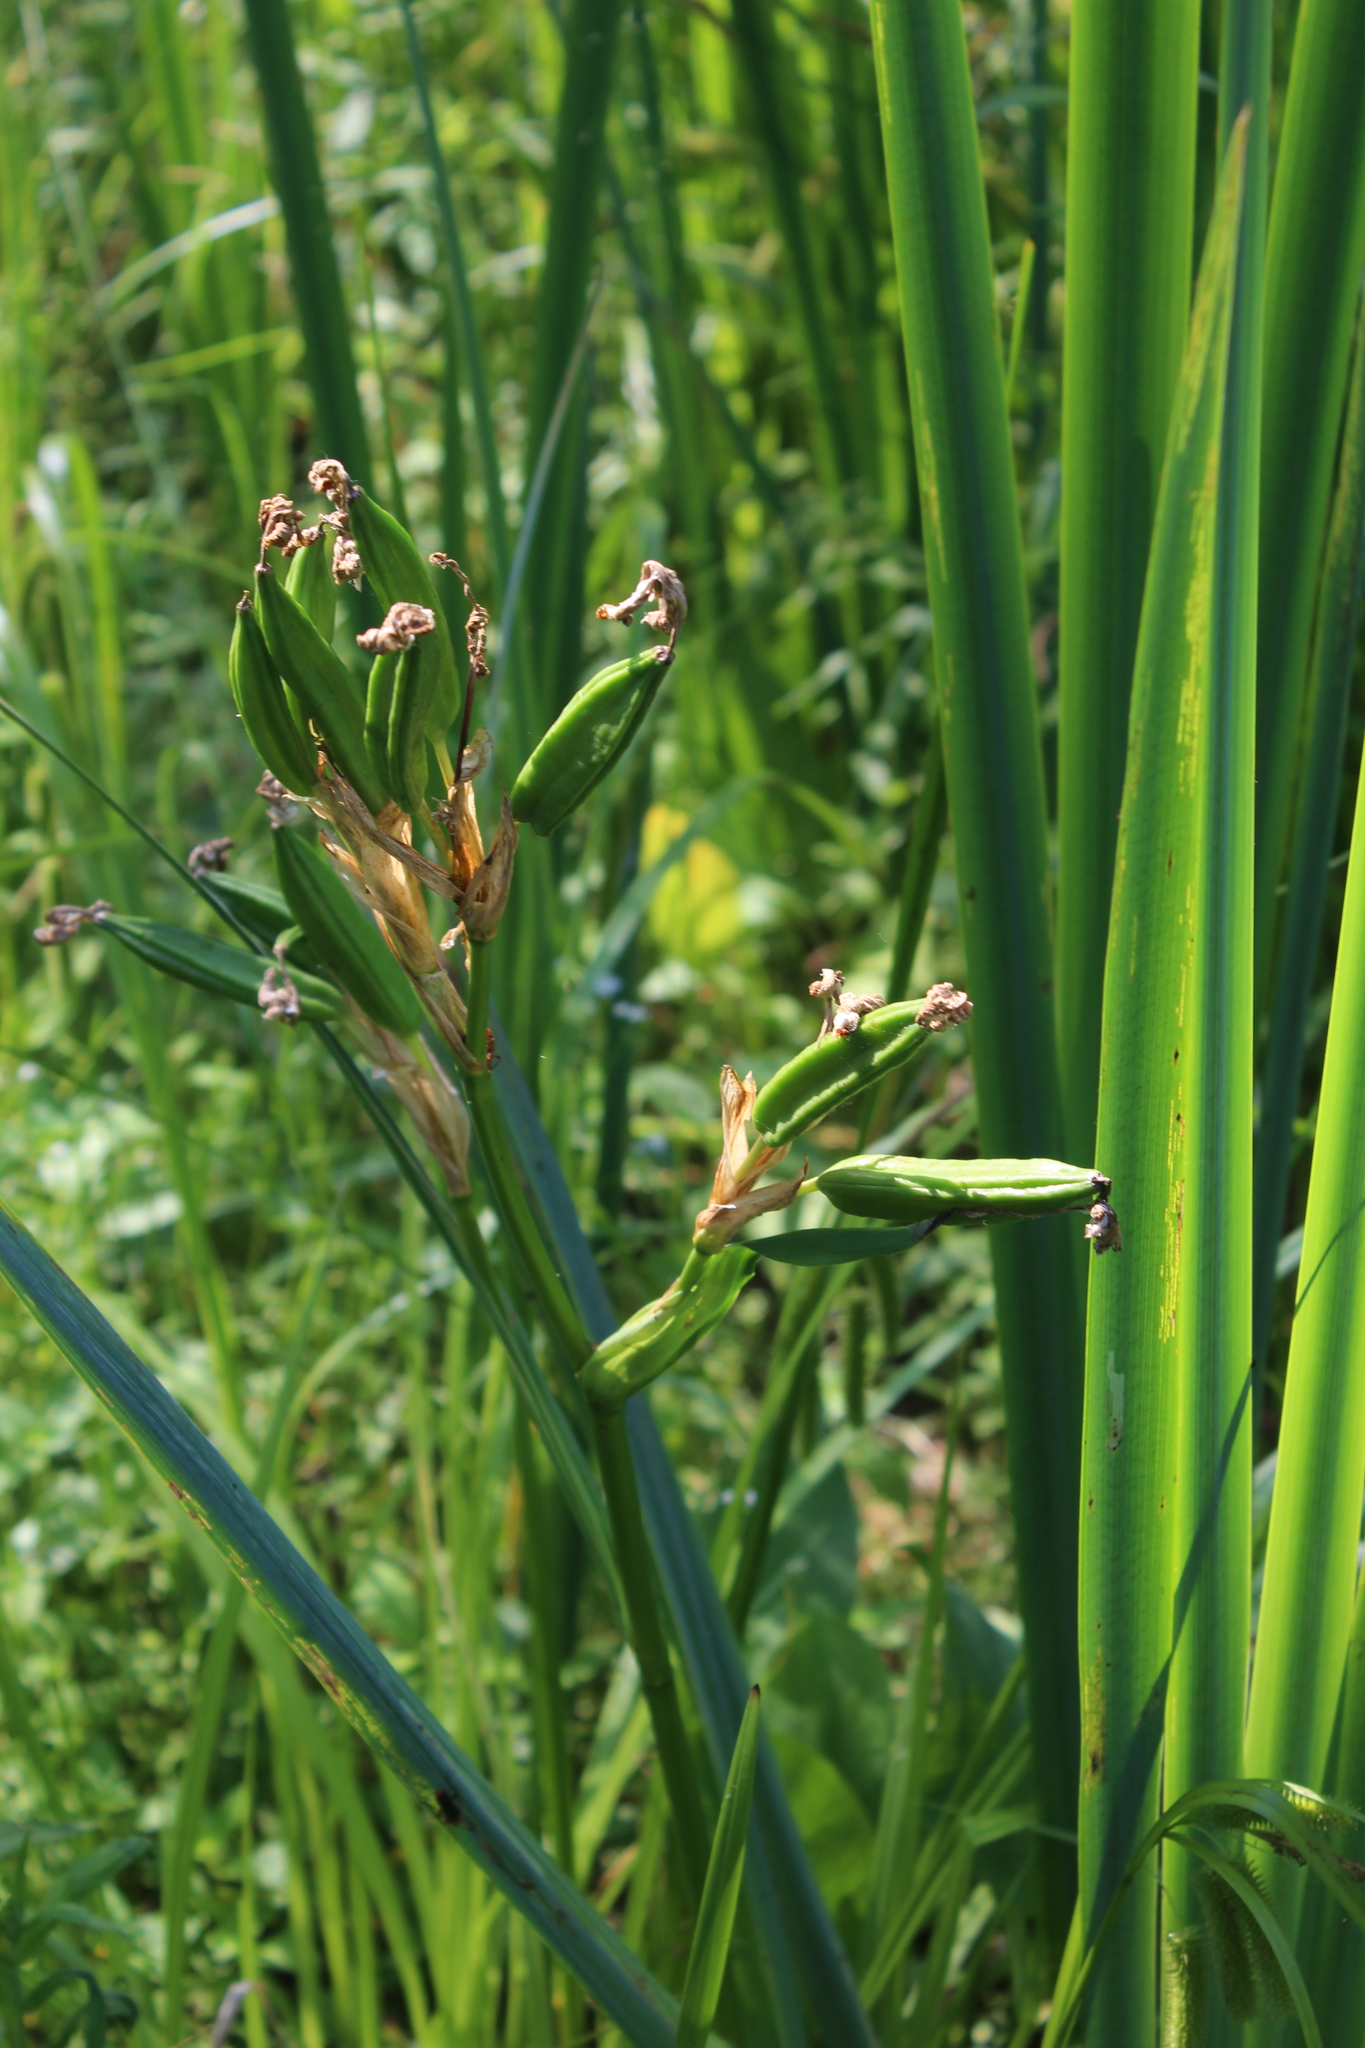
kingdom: Plantae
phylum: Tracheophyta
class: Liliopsida
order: Asparagales
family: Iridaceae
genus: Iris
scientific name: Iris pseudacorus
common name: Yellow flag
